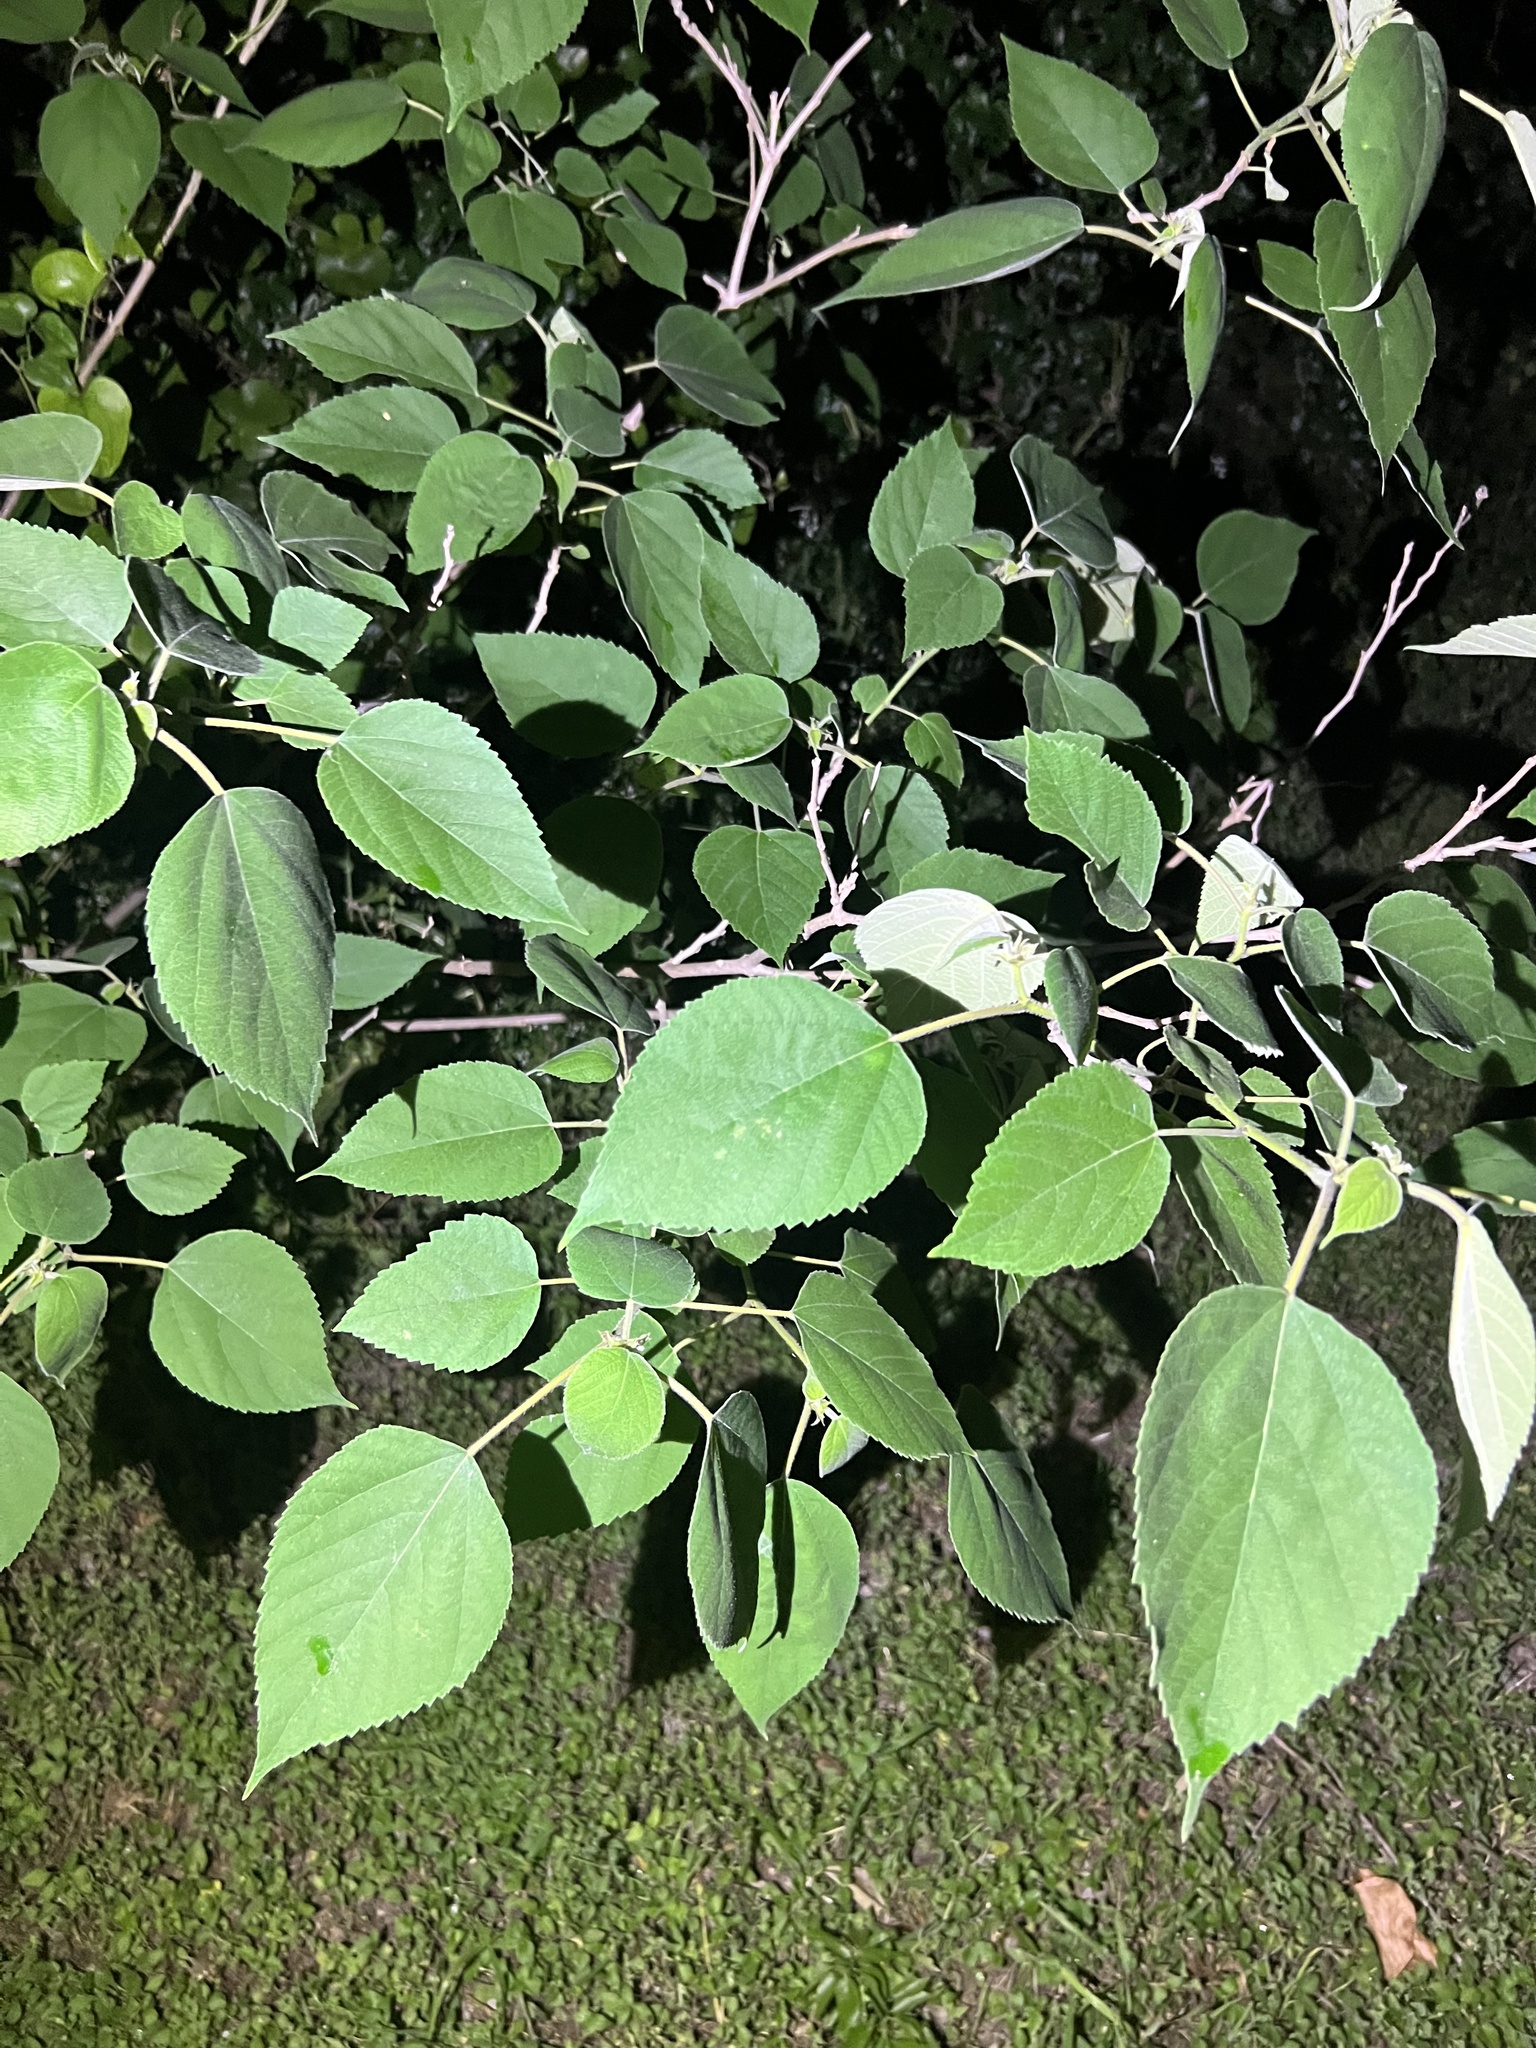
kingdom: Plantae
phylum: Tracheophyta
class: Magnoliopsida
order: Rosales
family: Moraceae
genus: Broussonetia
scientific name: Broussonetia papyrifera
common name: Paper mulberry
